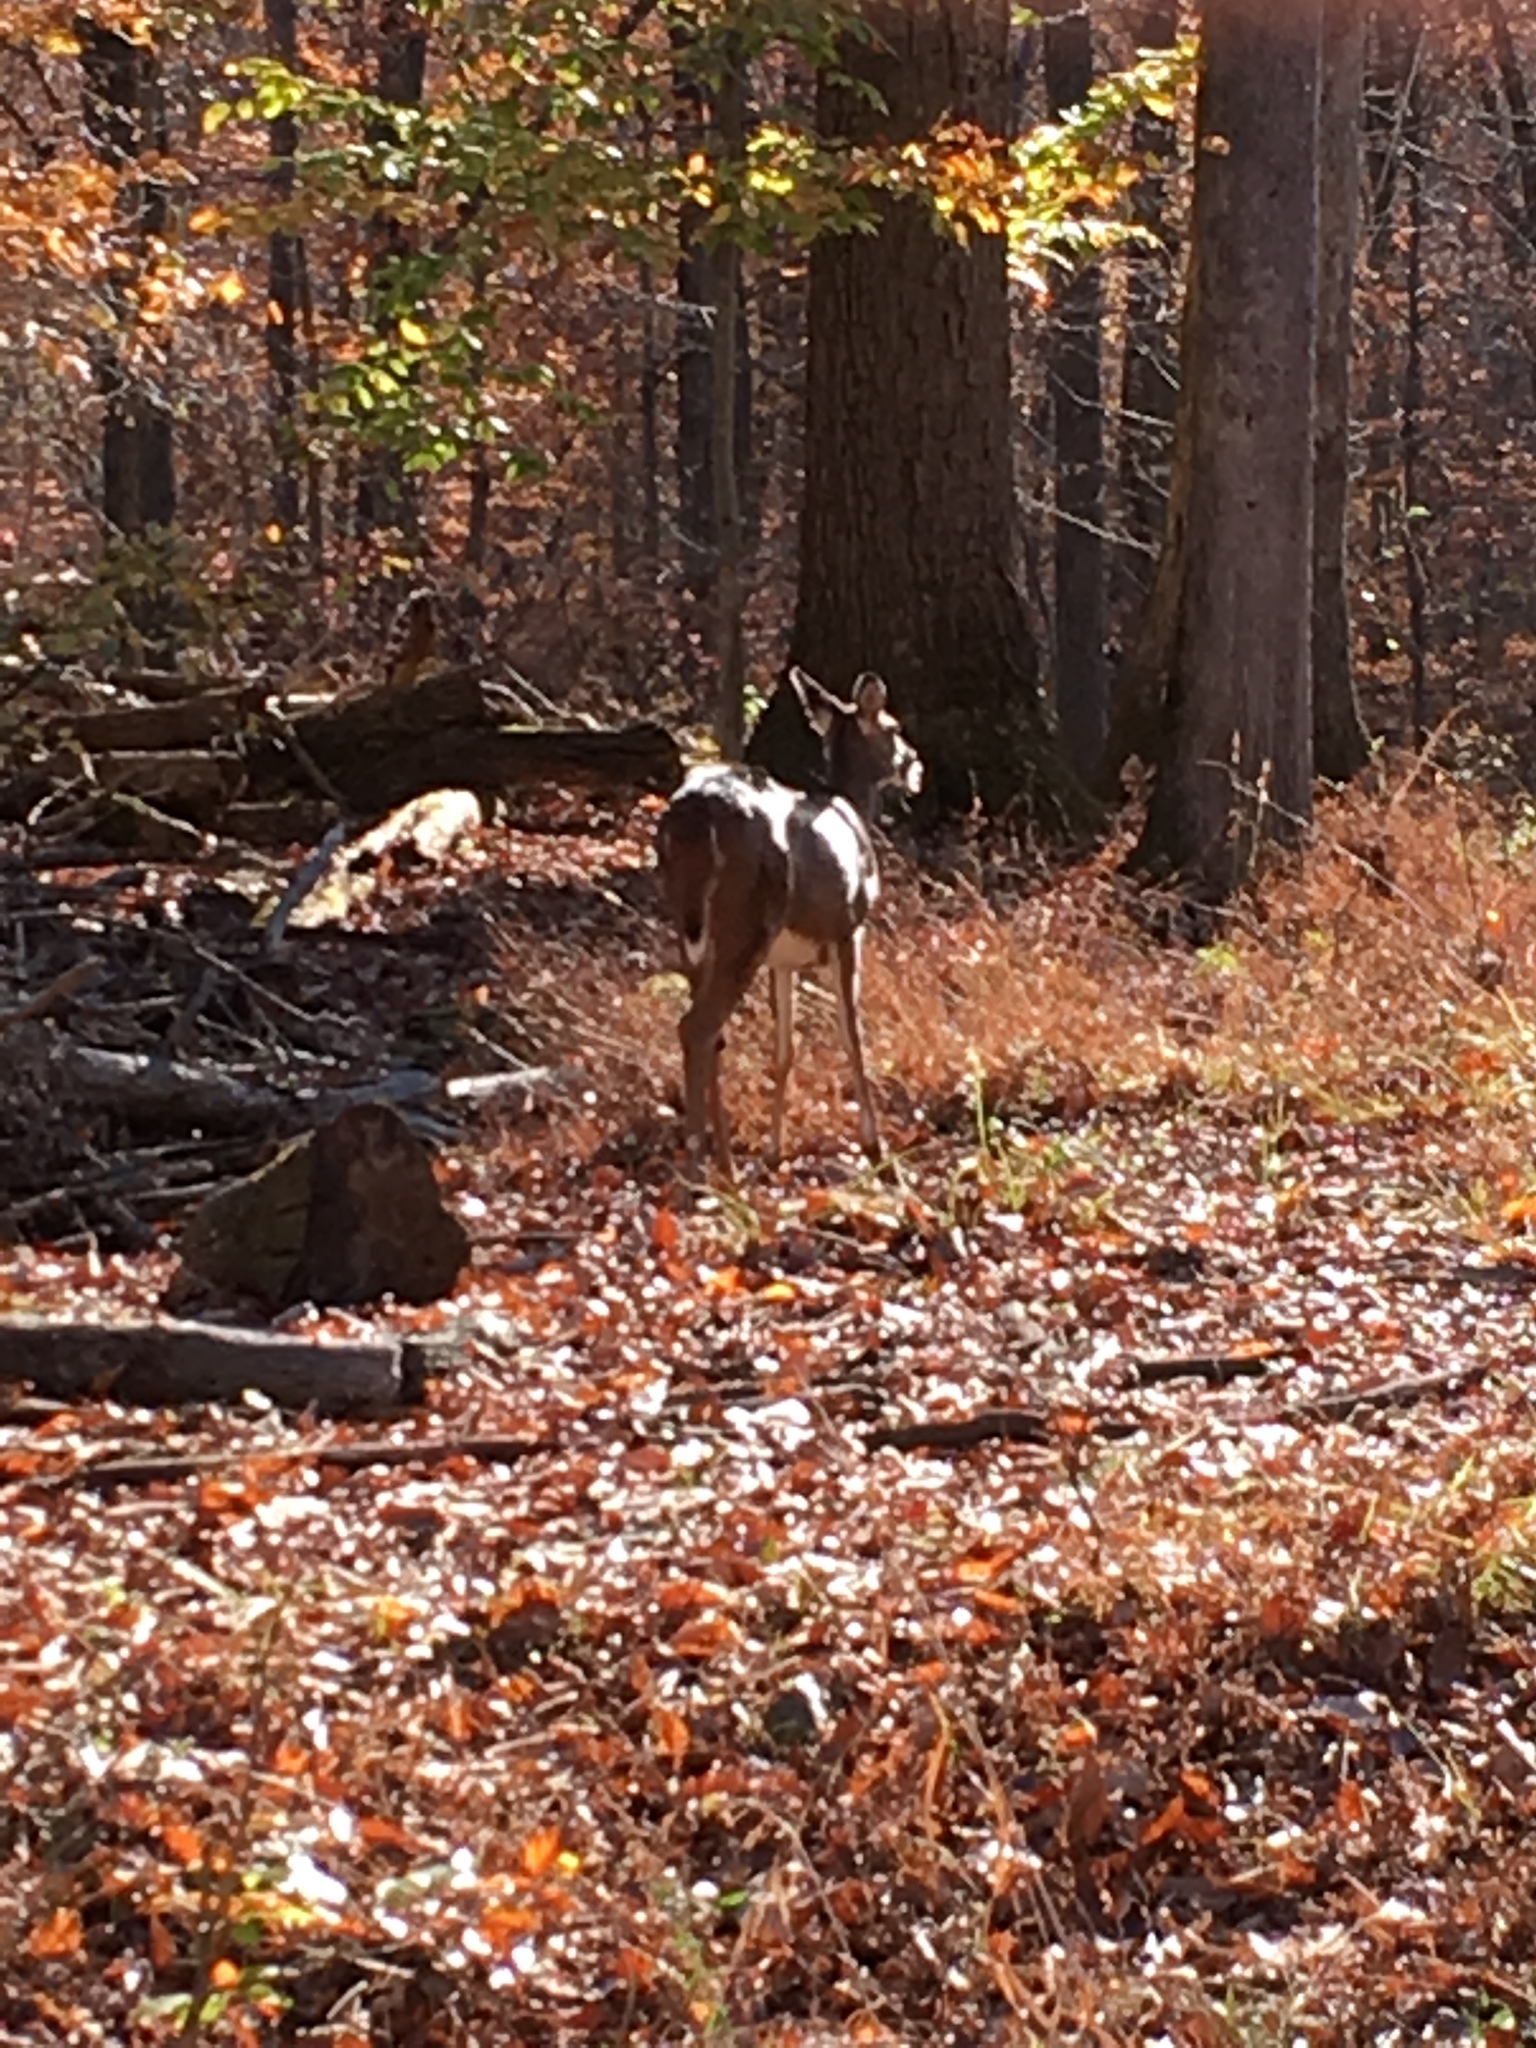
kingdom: Animalia
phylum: Chordata
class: Mammalia
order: Artiodactyla
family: Cervidae
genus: Odocoileus
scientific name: Odocoileus virginianus
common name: White-tailed deer
